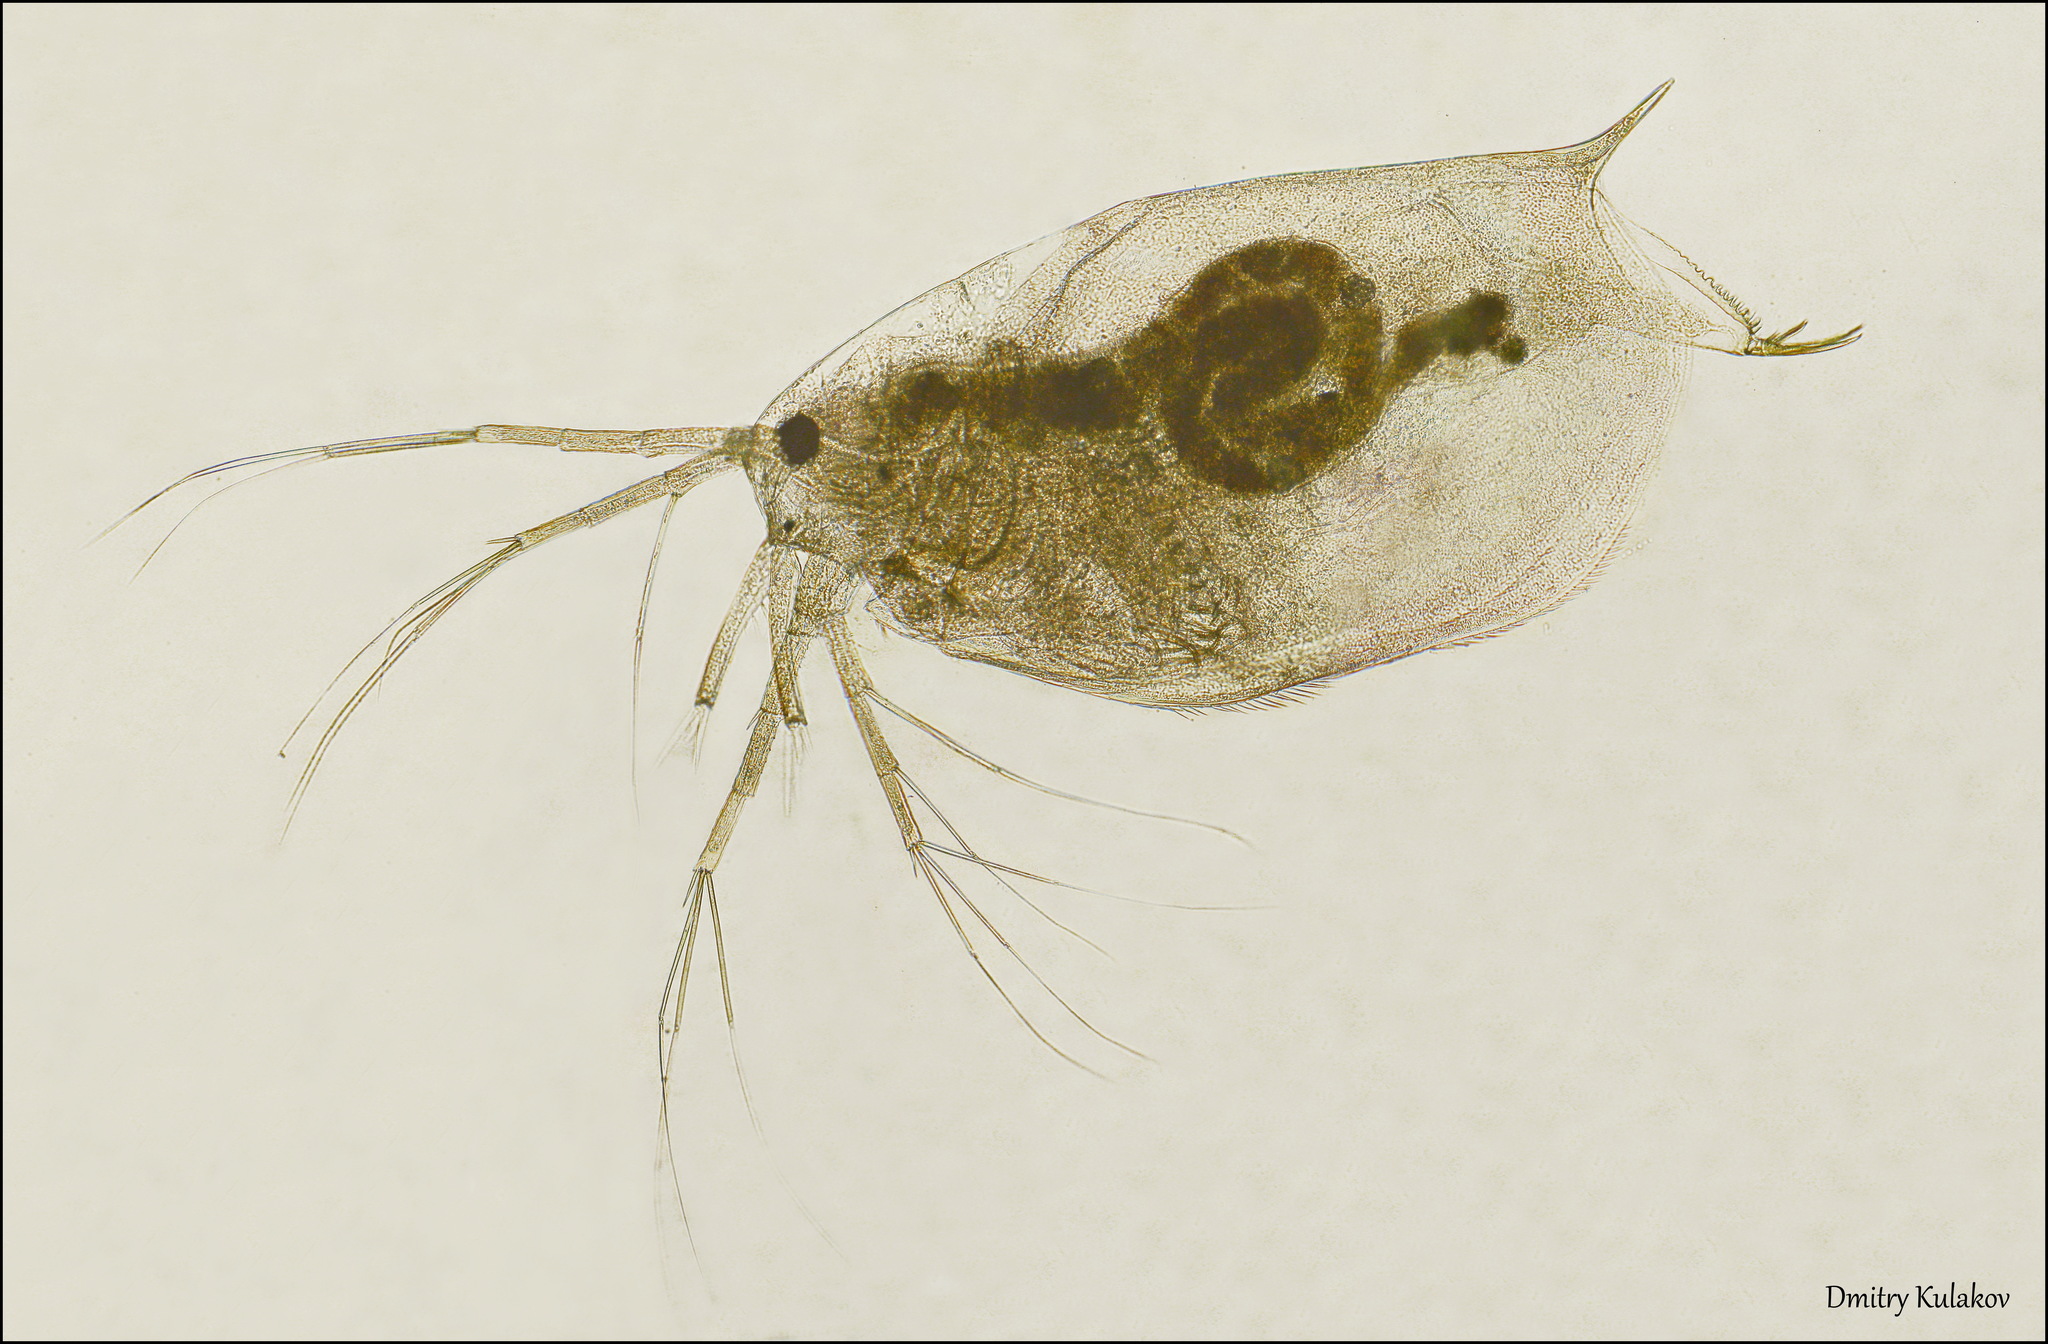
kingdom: Animalia
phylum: Arthropoda
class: Branchiopoda
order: Diplostraca
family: Ophryoxidae
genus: Ophryoxus
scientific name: Ophryoxus gracilis
